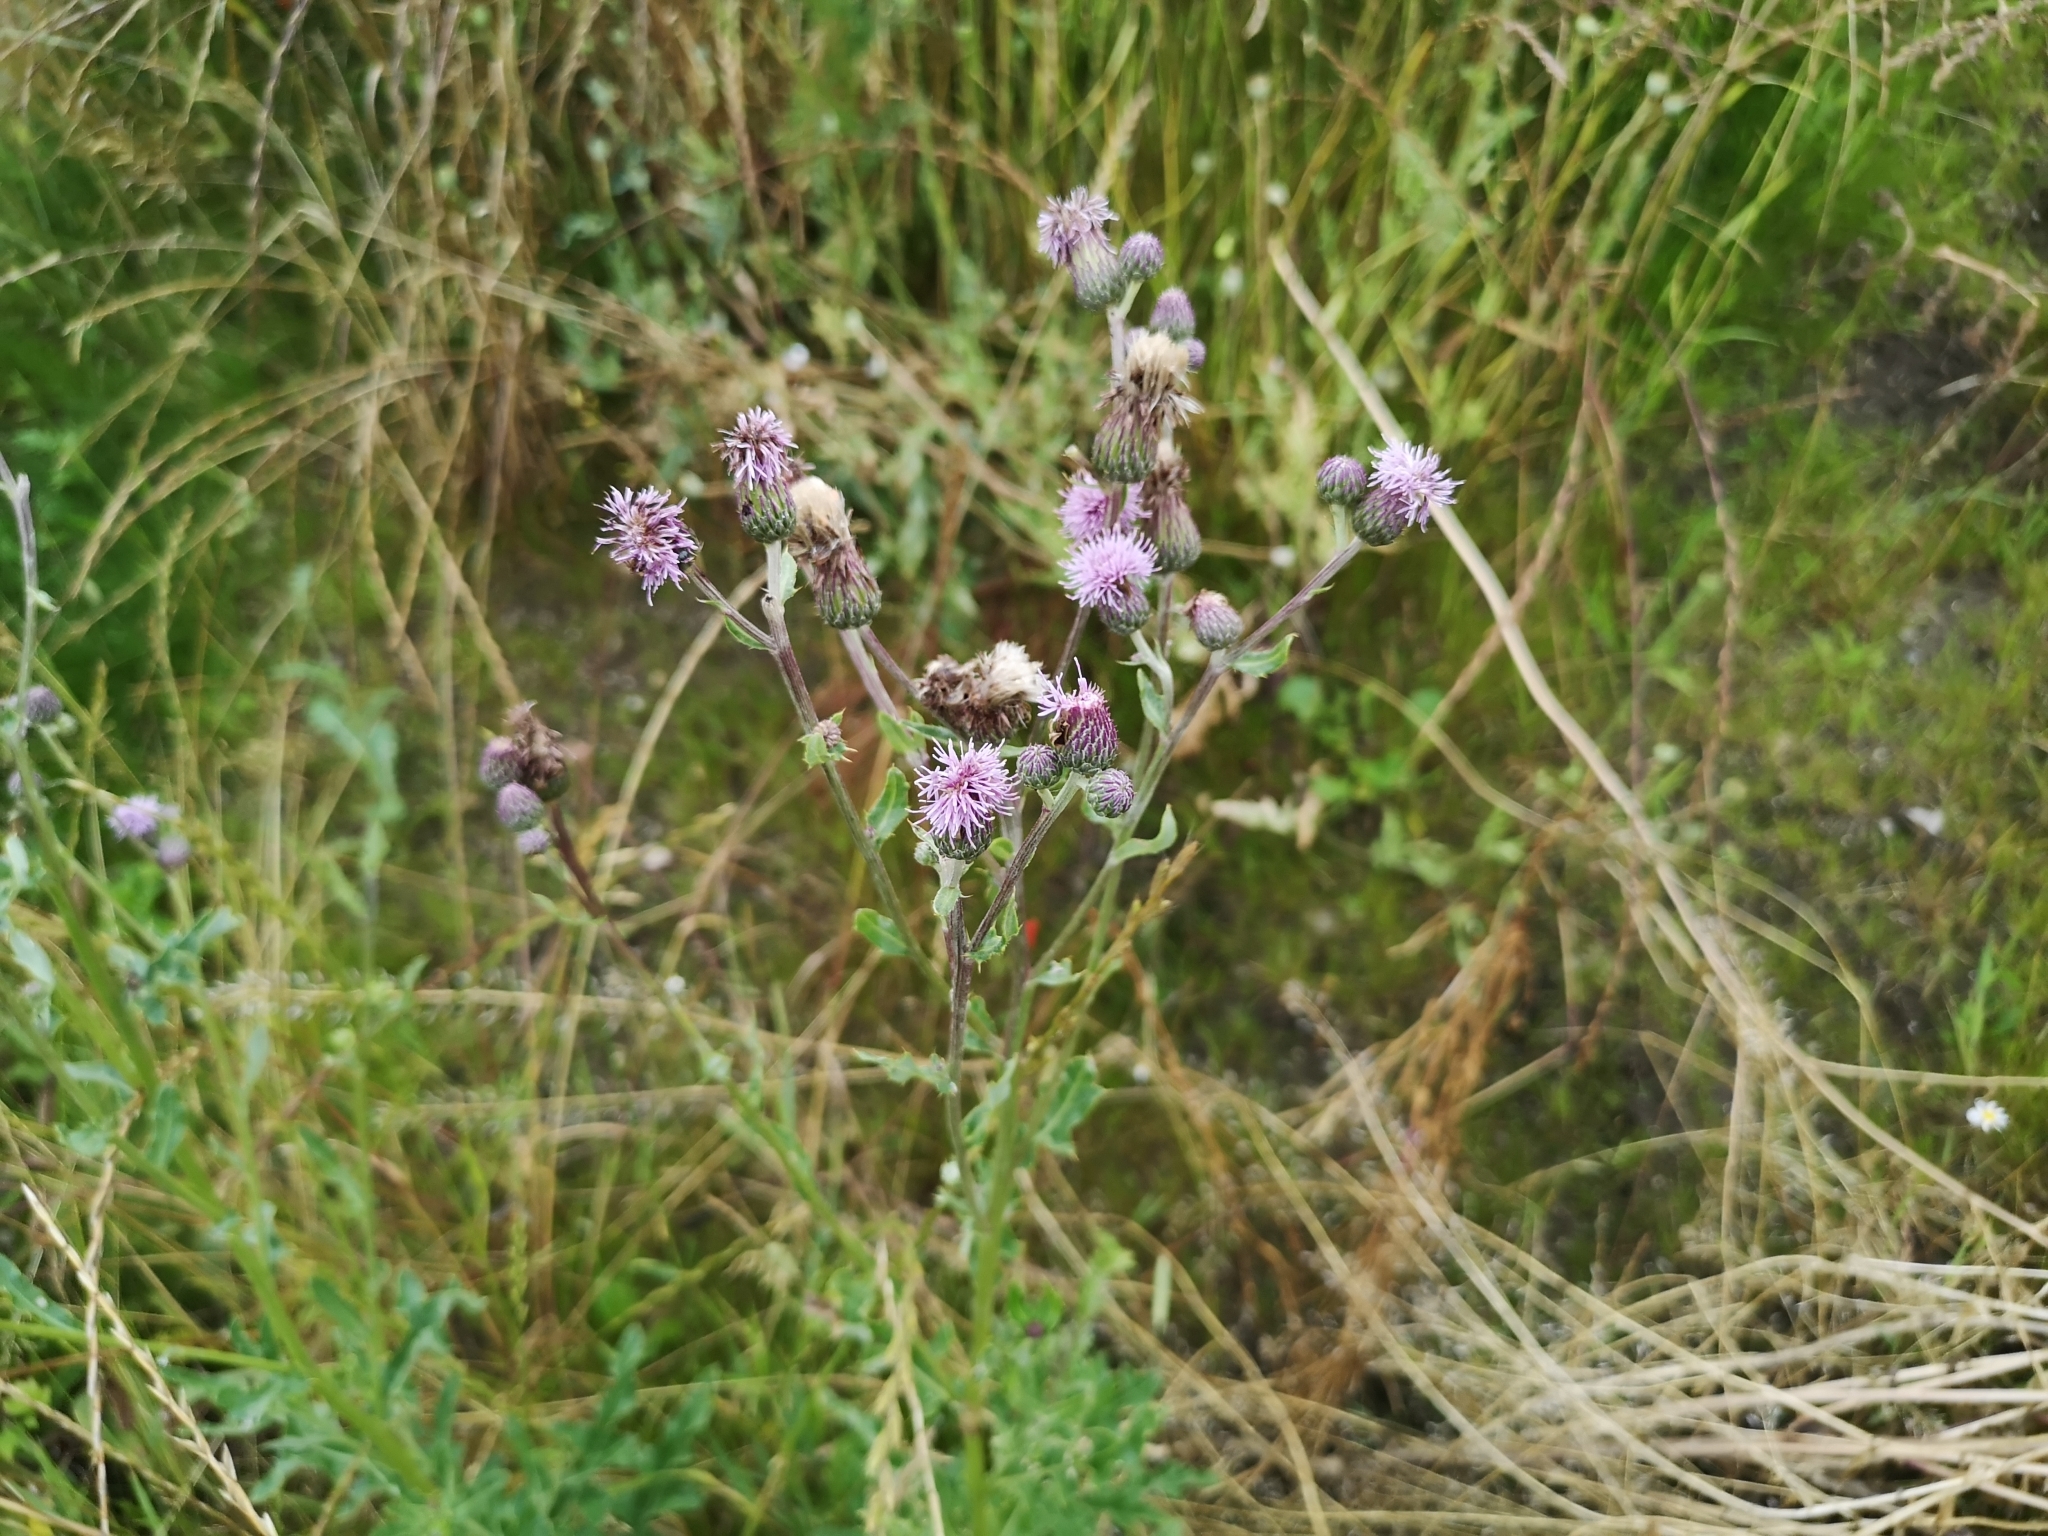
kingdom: Plantae
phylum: Tracheophyta
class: Magnoliopsida
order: Asterales
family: Asteraceae
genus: Cirsium
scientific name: Cirsium arvense
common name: Creeping thistle
